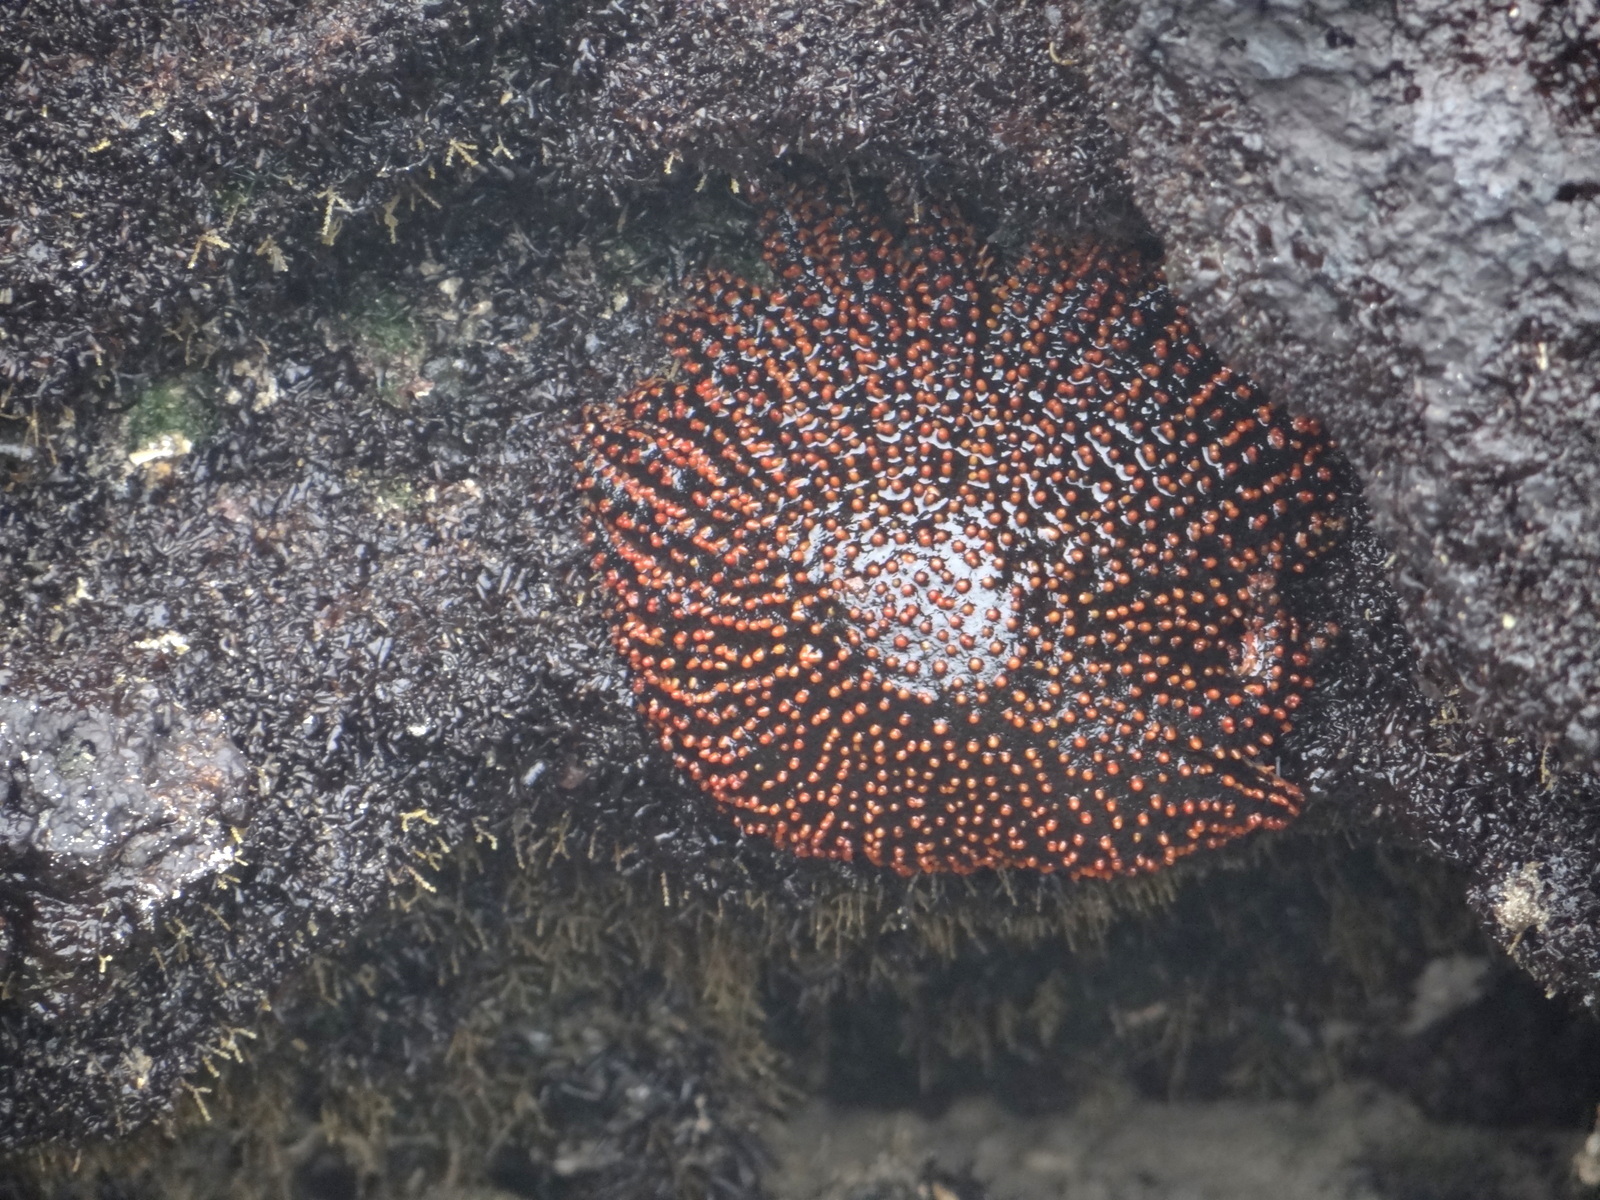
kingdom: Animalia
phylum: Echinodermata
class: Asteroidea
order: Forcipulatida
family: Heliasteridae
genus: Heliaster
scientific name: Heliaster cumingi
